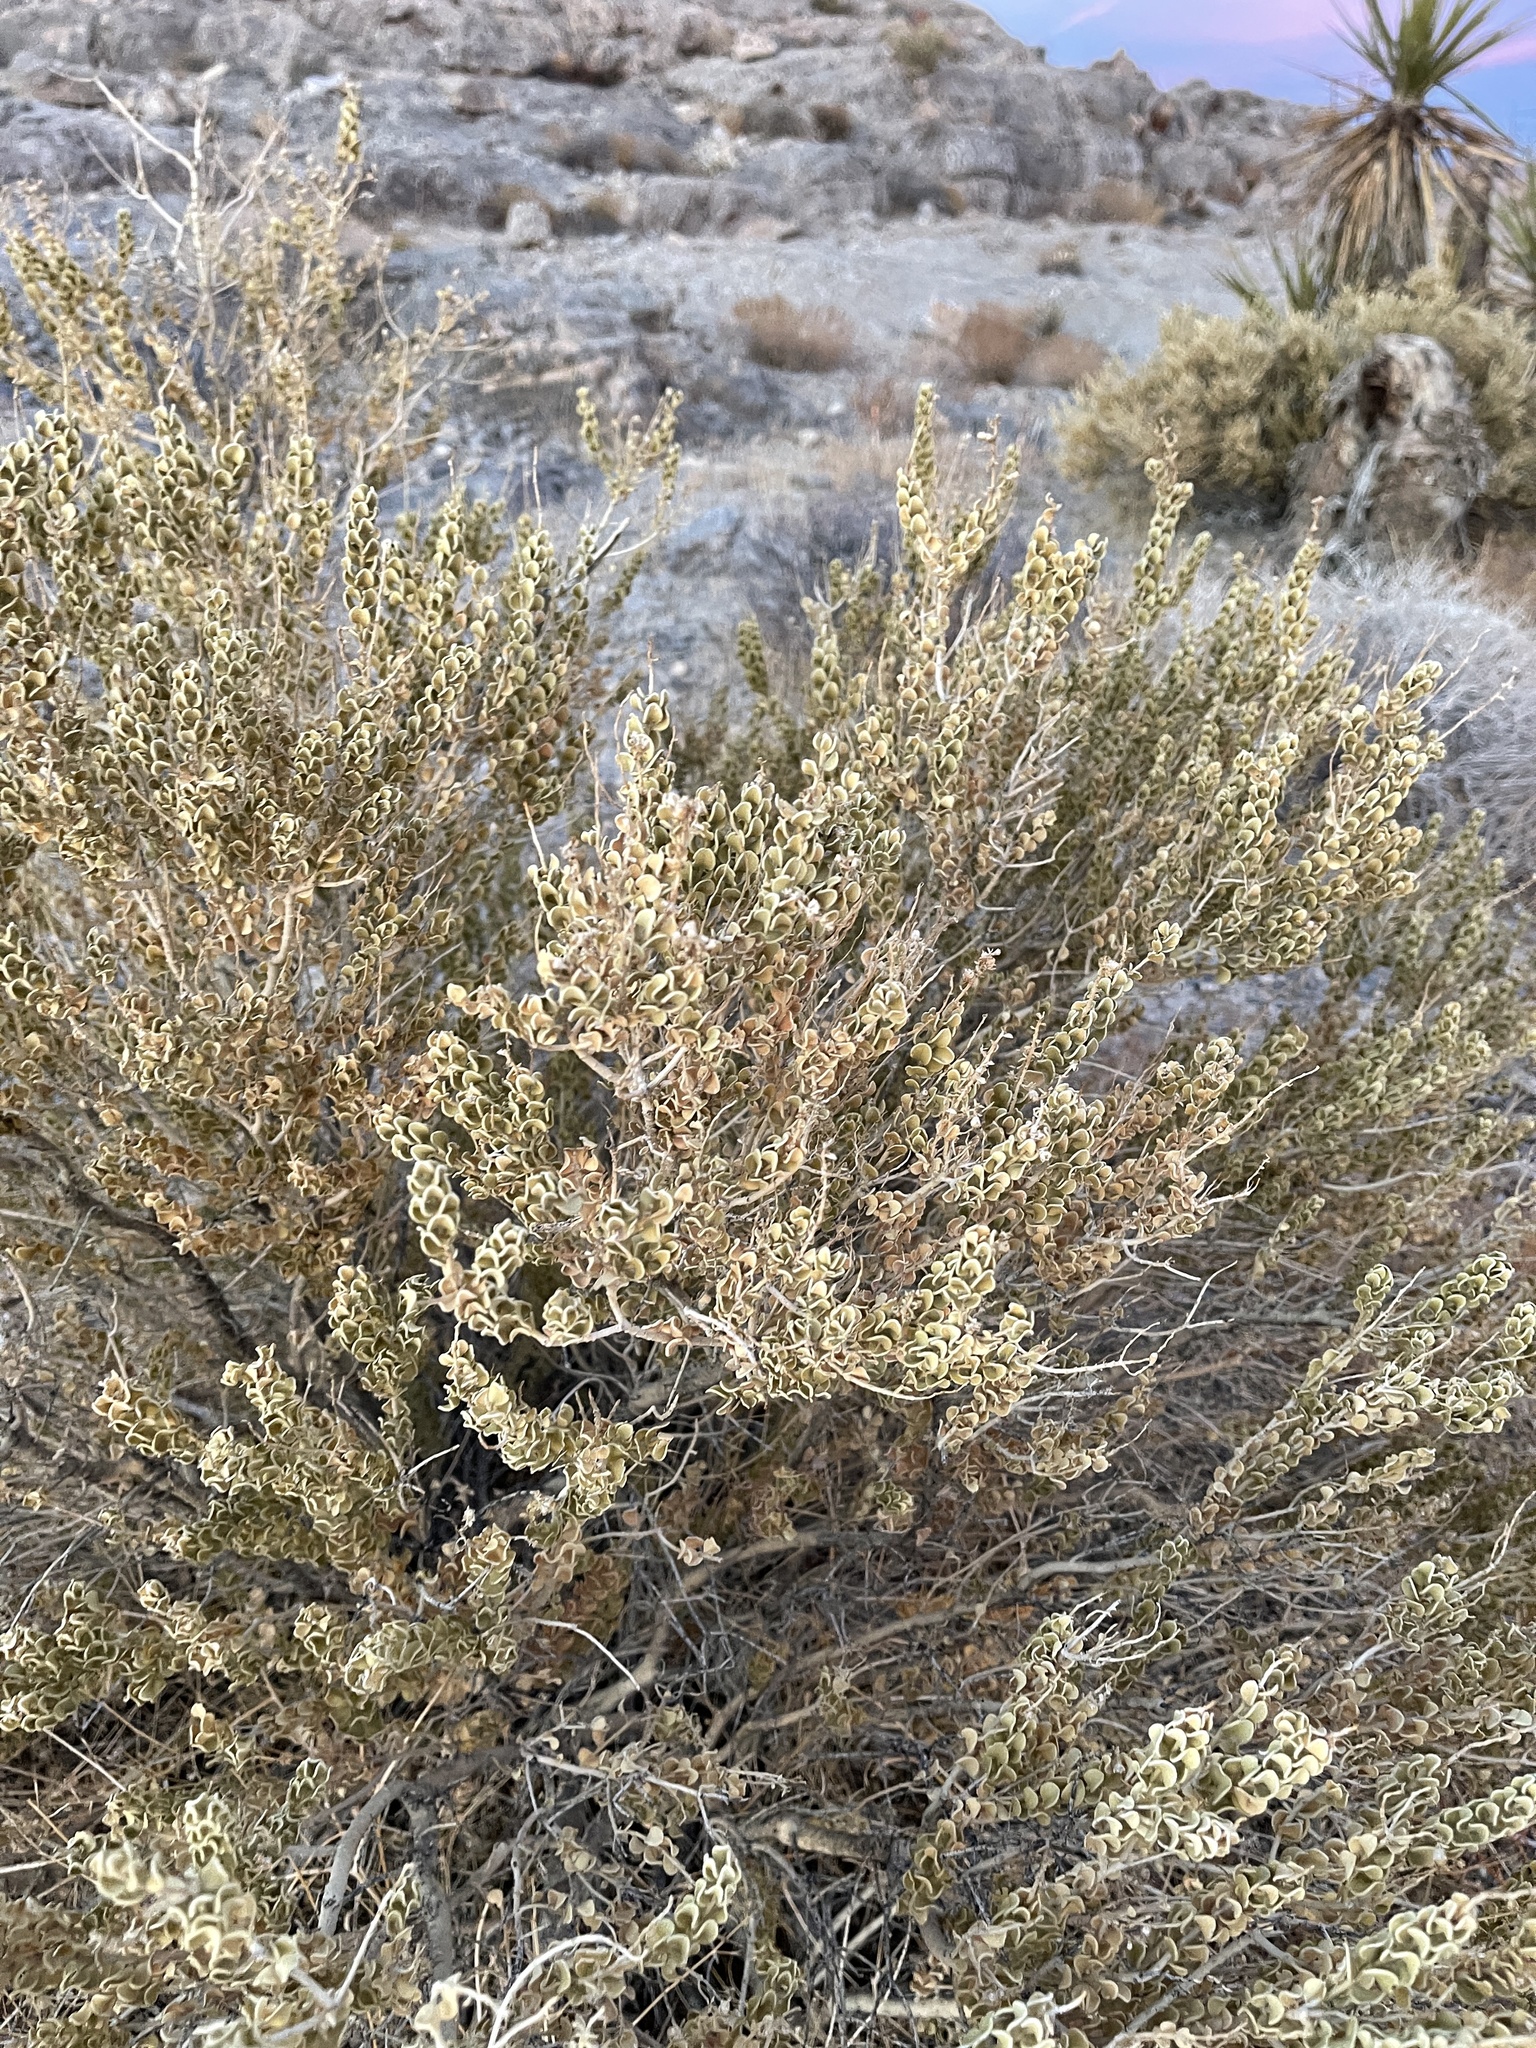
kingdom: Plantae
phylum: Tracheophyta
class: Magnoliopsida
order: Celastrales
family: Celastraceae
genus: Mortonia
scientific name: Mortonia utahensis
